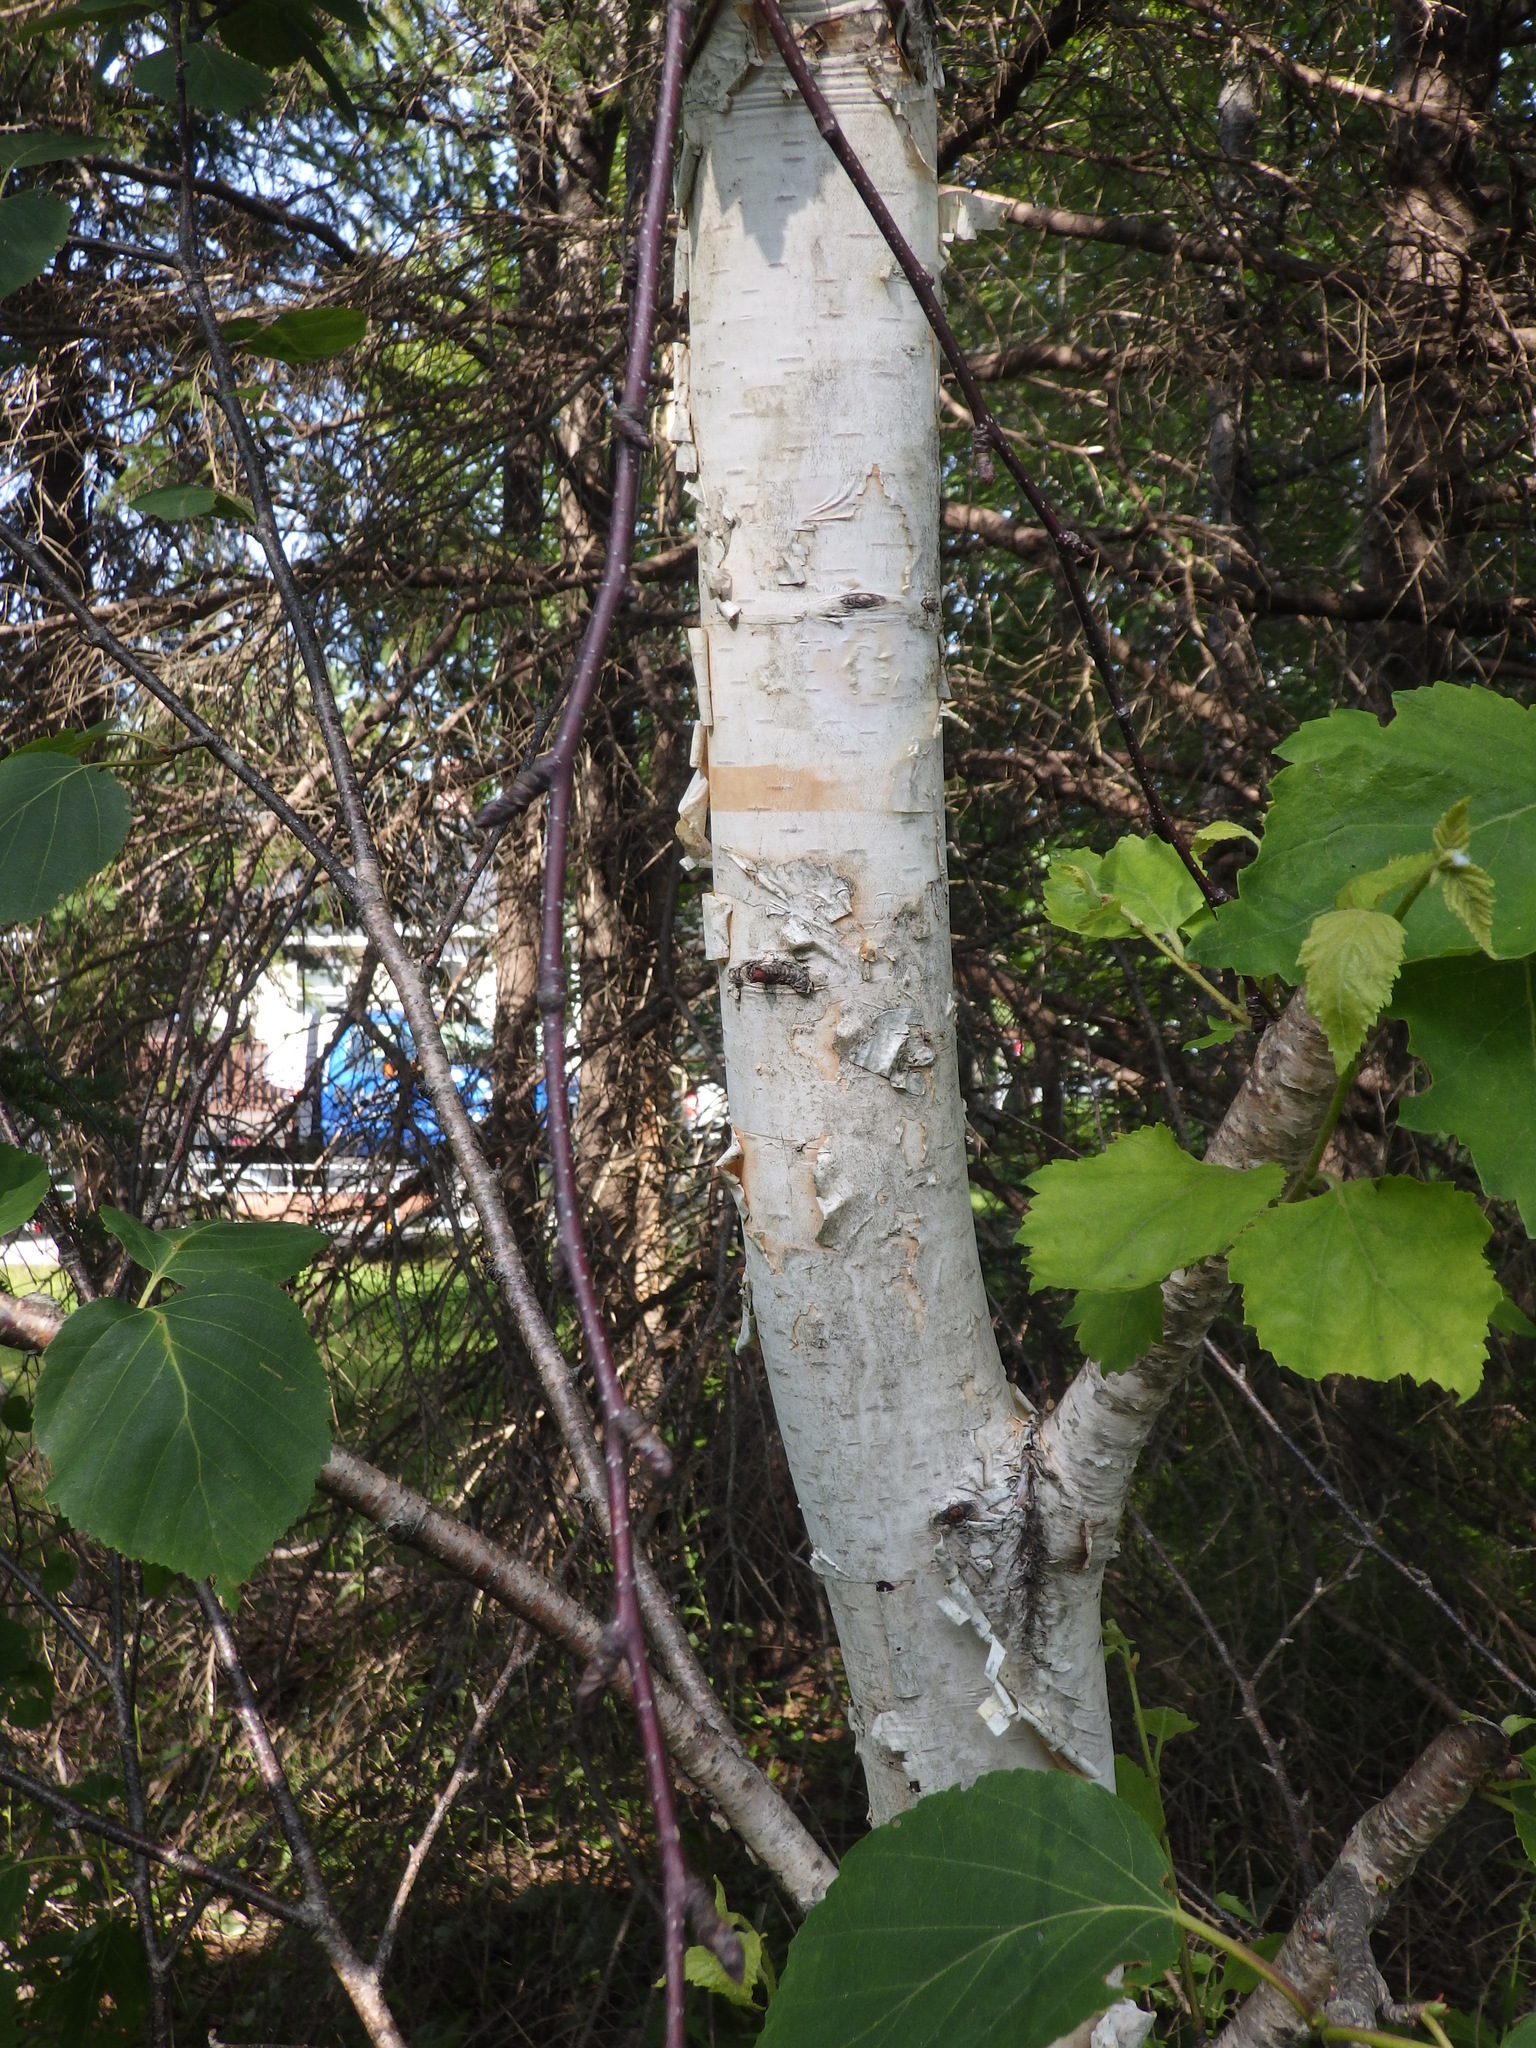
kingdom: Plantae
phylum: Tracheophyta
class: Magnoliopsida
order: Fagales
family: Betulaceae
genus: Betula
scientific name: Betula papyrifera
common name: Paper birch
